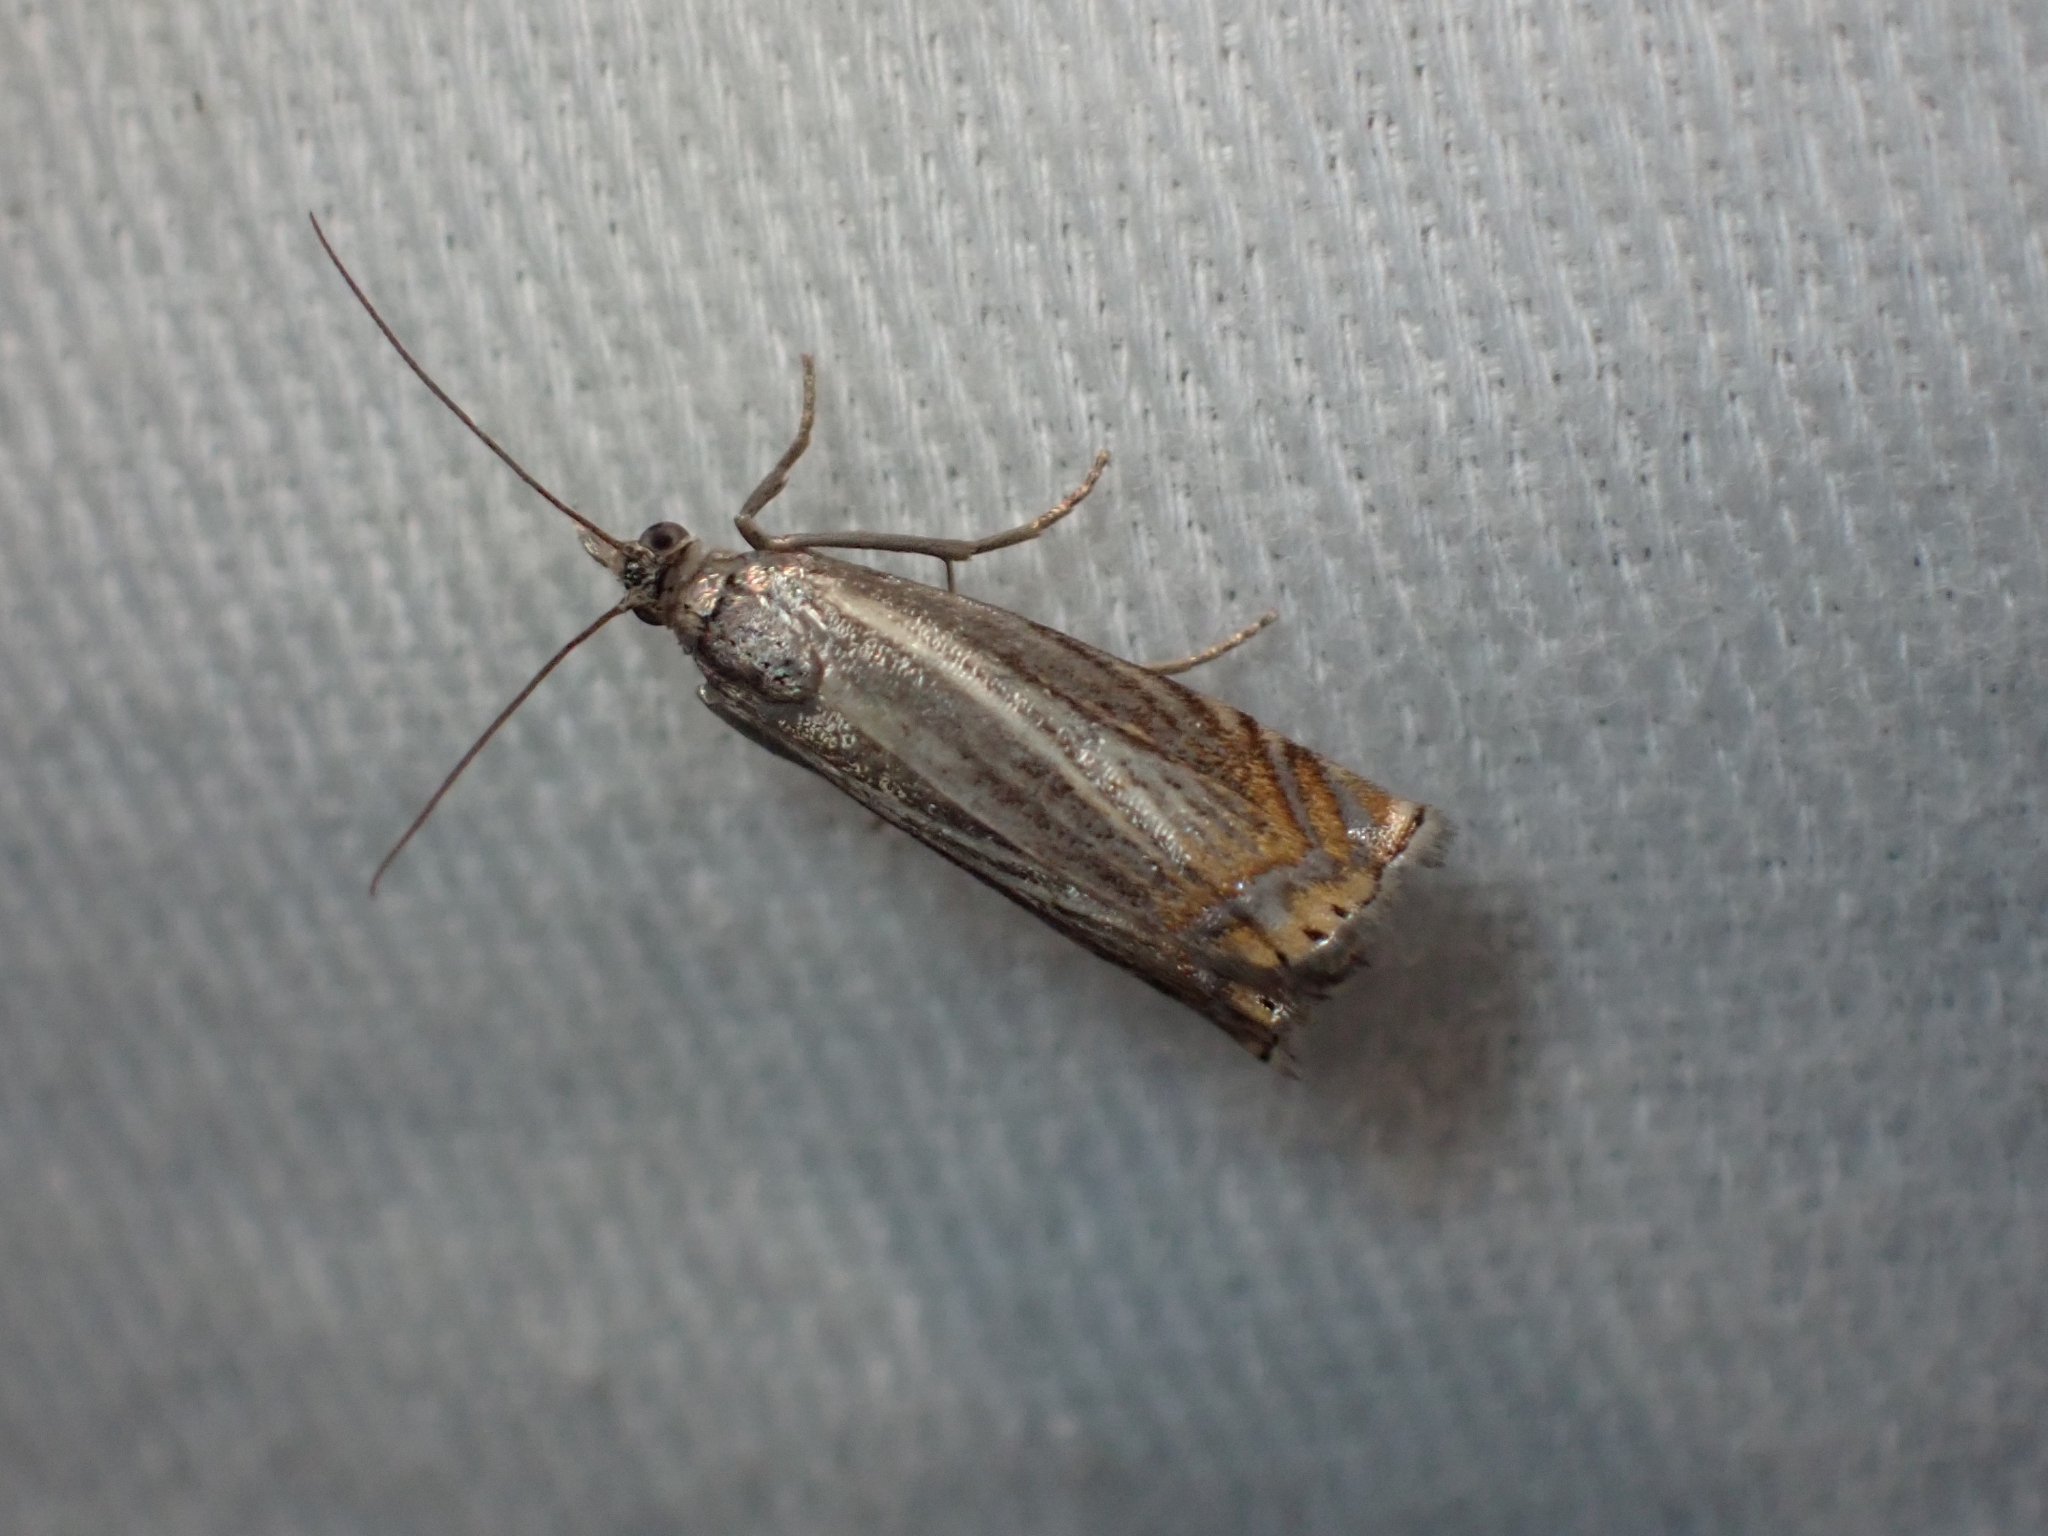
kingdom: Animalia
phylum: Arthropoda
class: Insecta
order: Lepidoptera
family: Crambidae
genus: Chrysoteuchia
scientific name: Chrysoteuchia topiarius
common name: Topiary grass-veneer
